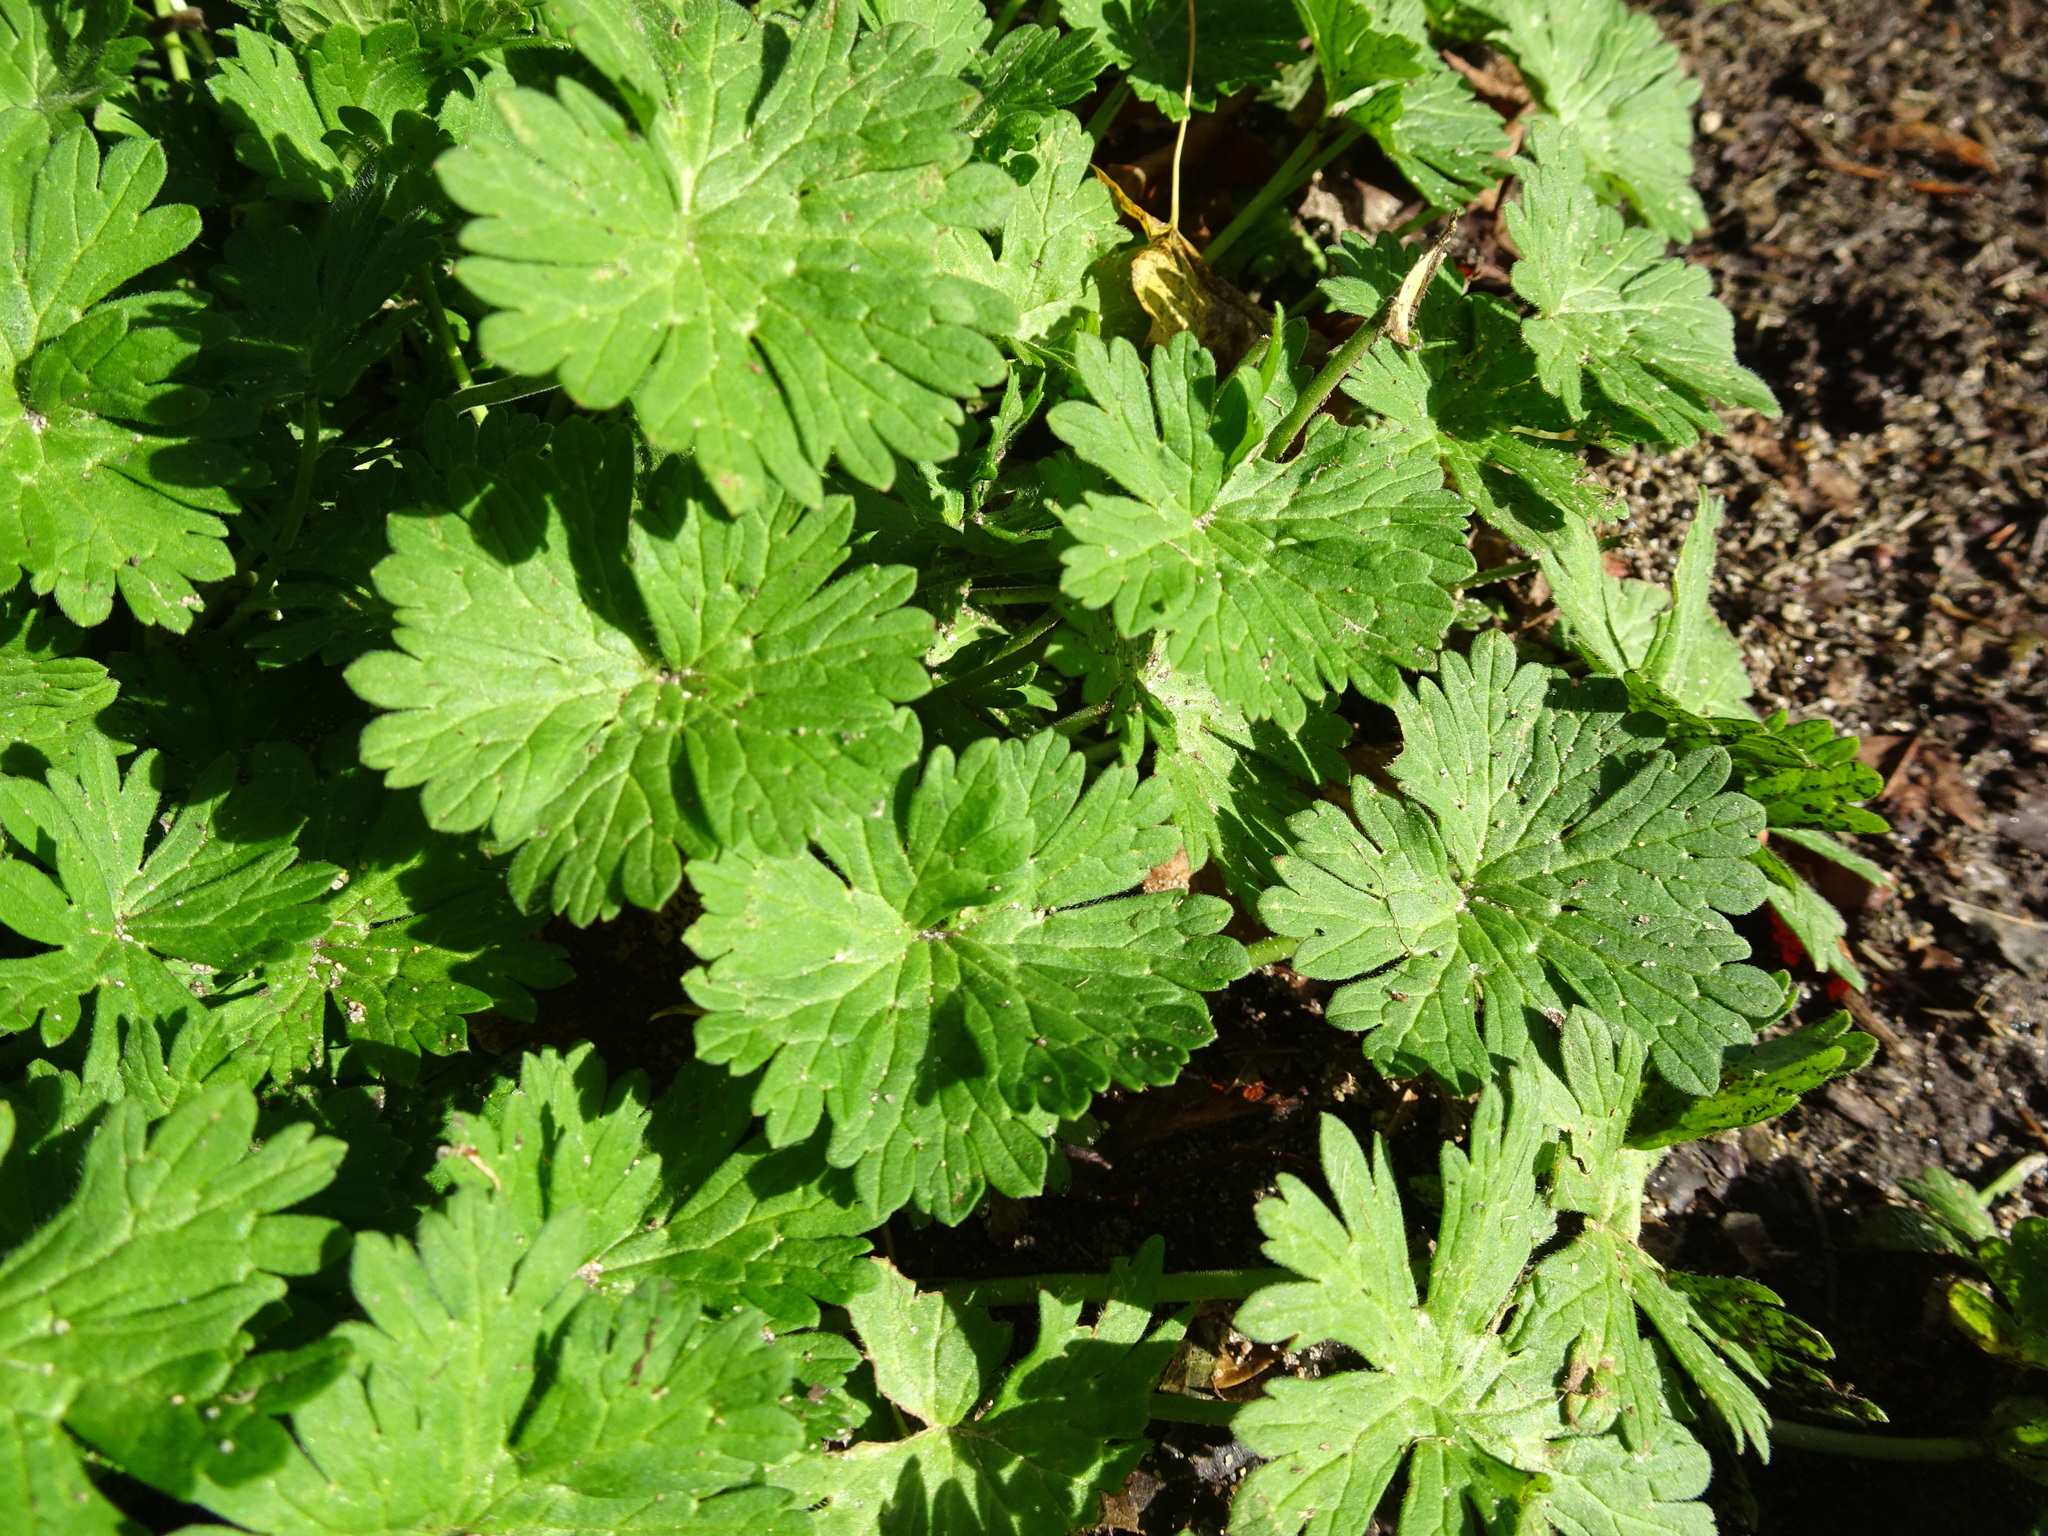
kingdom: Plantae
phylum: Tracheophyta
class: Magnoliopsida
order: Geraniales
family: Geraniaceae
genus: Geranium
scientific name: Geranium molle
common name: Dove's-foot crane's-bill
